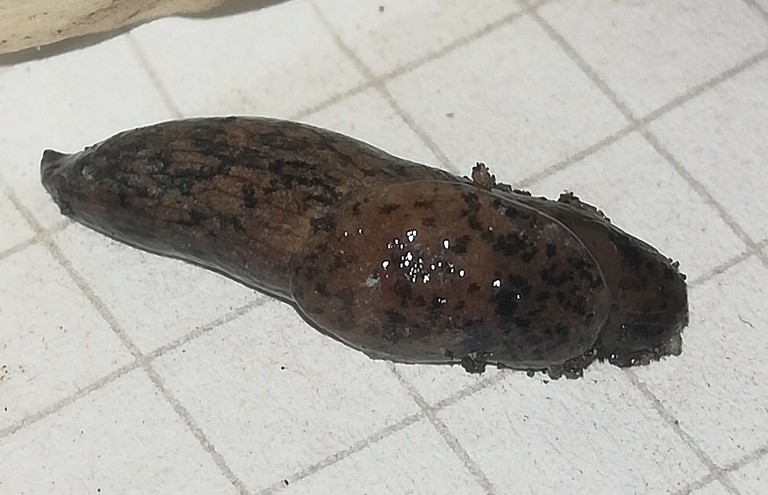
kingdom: Animalia
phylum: Mollusca
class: Gastropoda
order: Stylommatophora
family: Agriolimacidae
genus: Deroceras
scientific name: Deroceras reticulatum
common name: Gray field slug
